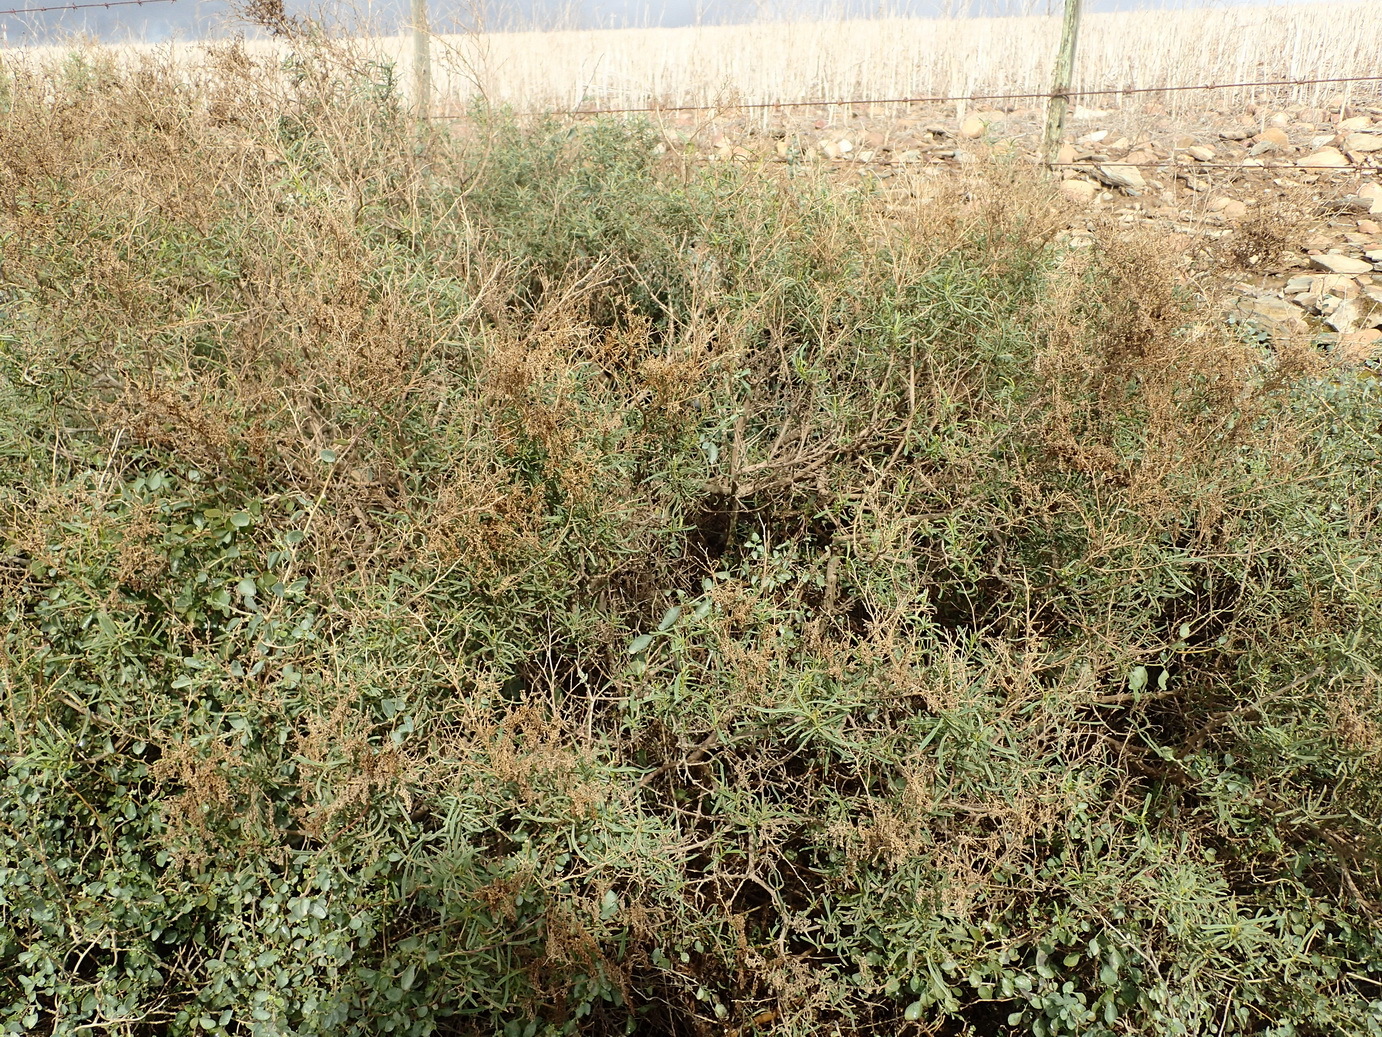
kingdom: Plantae
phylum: Tracheophyta
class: Magnoliopsida
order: Caryophyllales
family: Aizoaceae
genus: Aizoon
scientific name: Aizoon africanum
